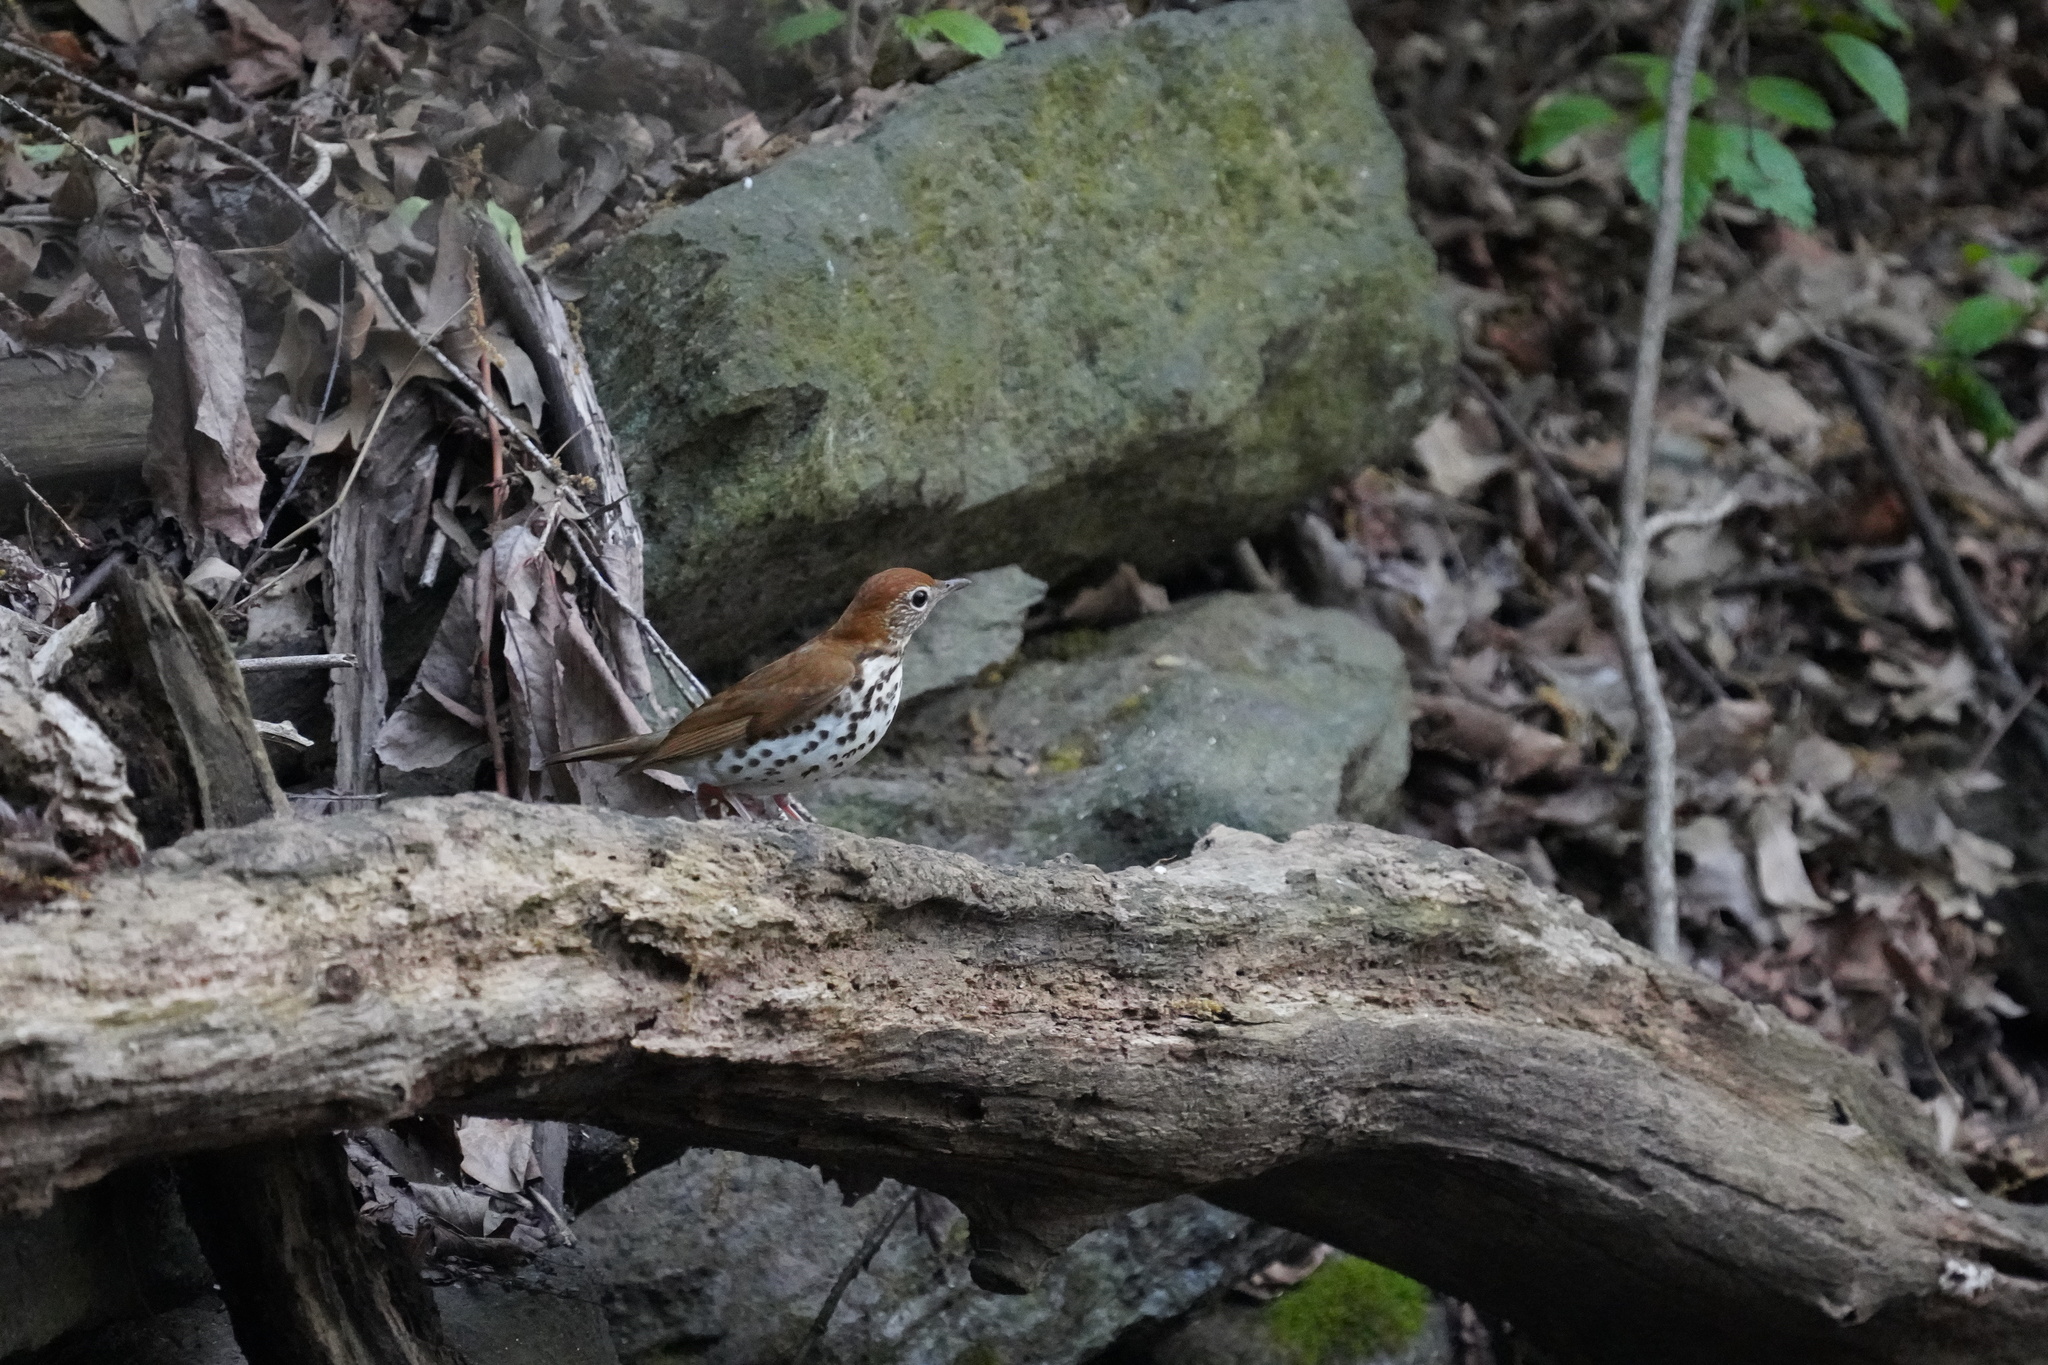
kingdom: Animalia
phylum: Chordata
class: Aves
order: Passeriformes
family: Turdidae
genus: Hylocichla
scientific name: Hylocichla mustelina
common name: Wood thrush
